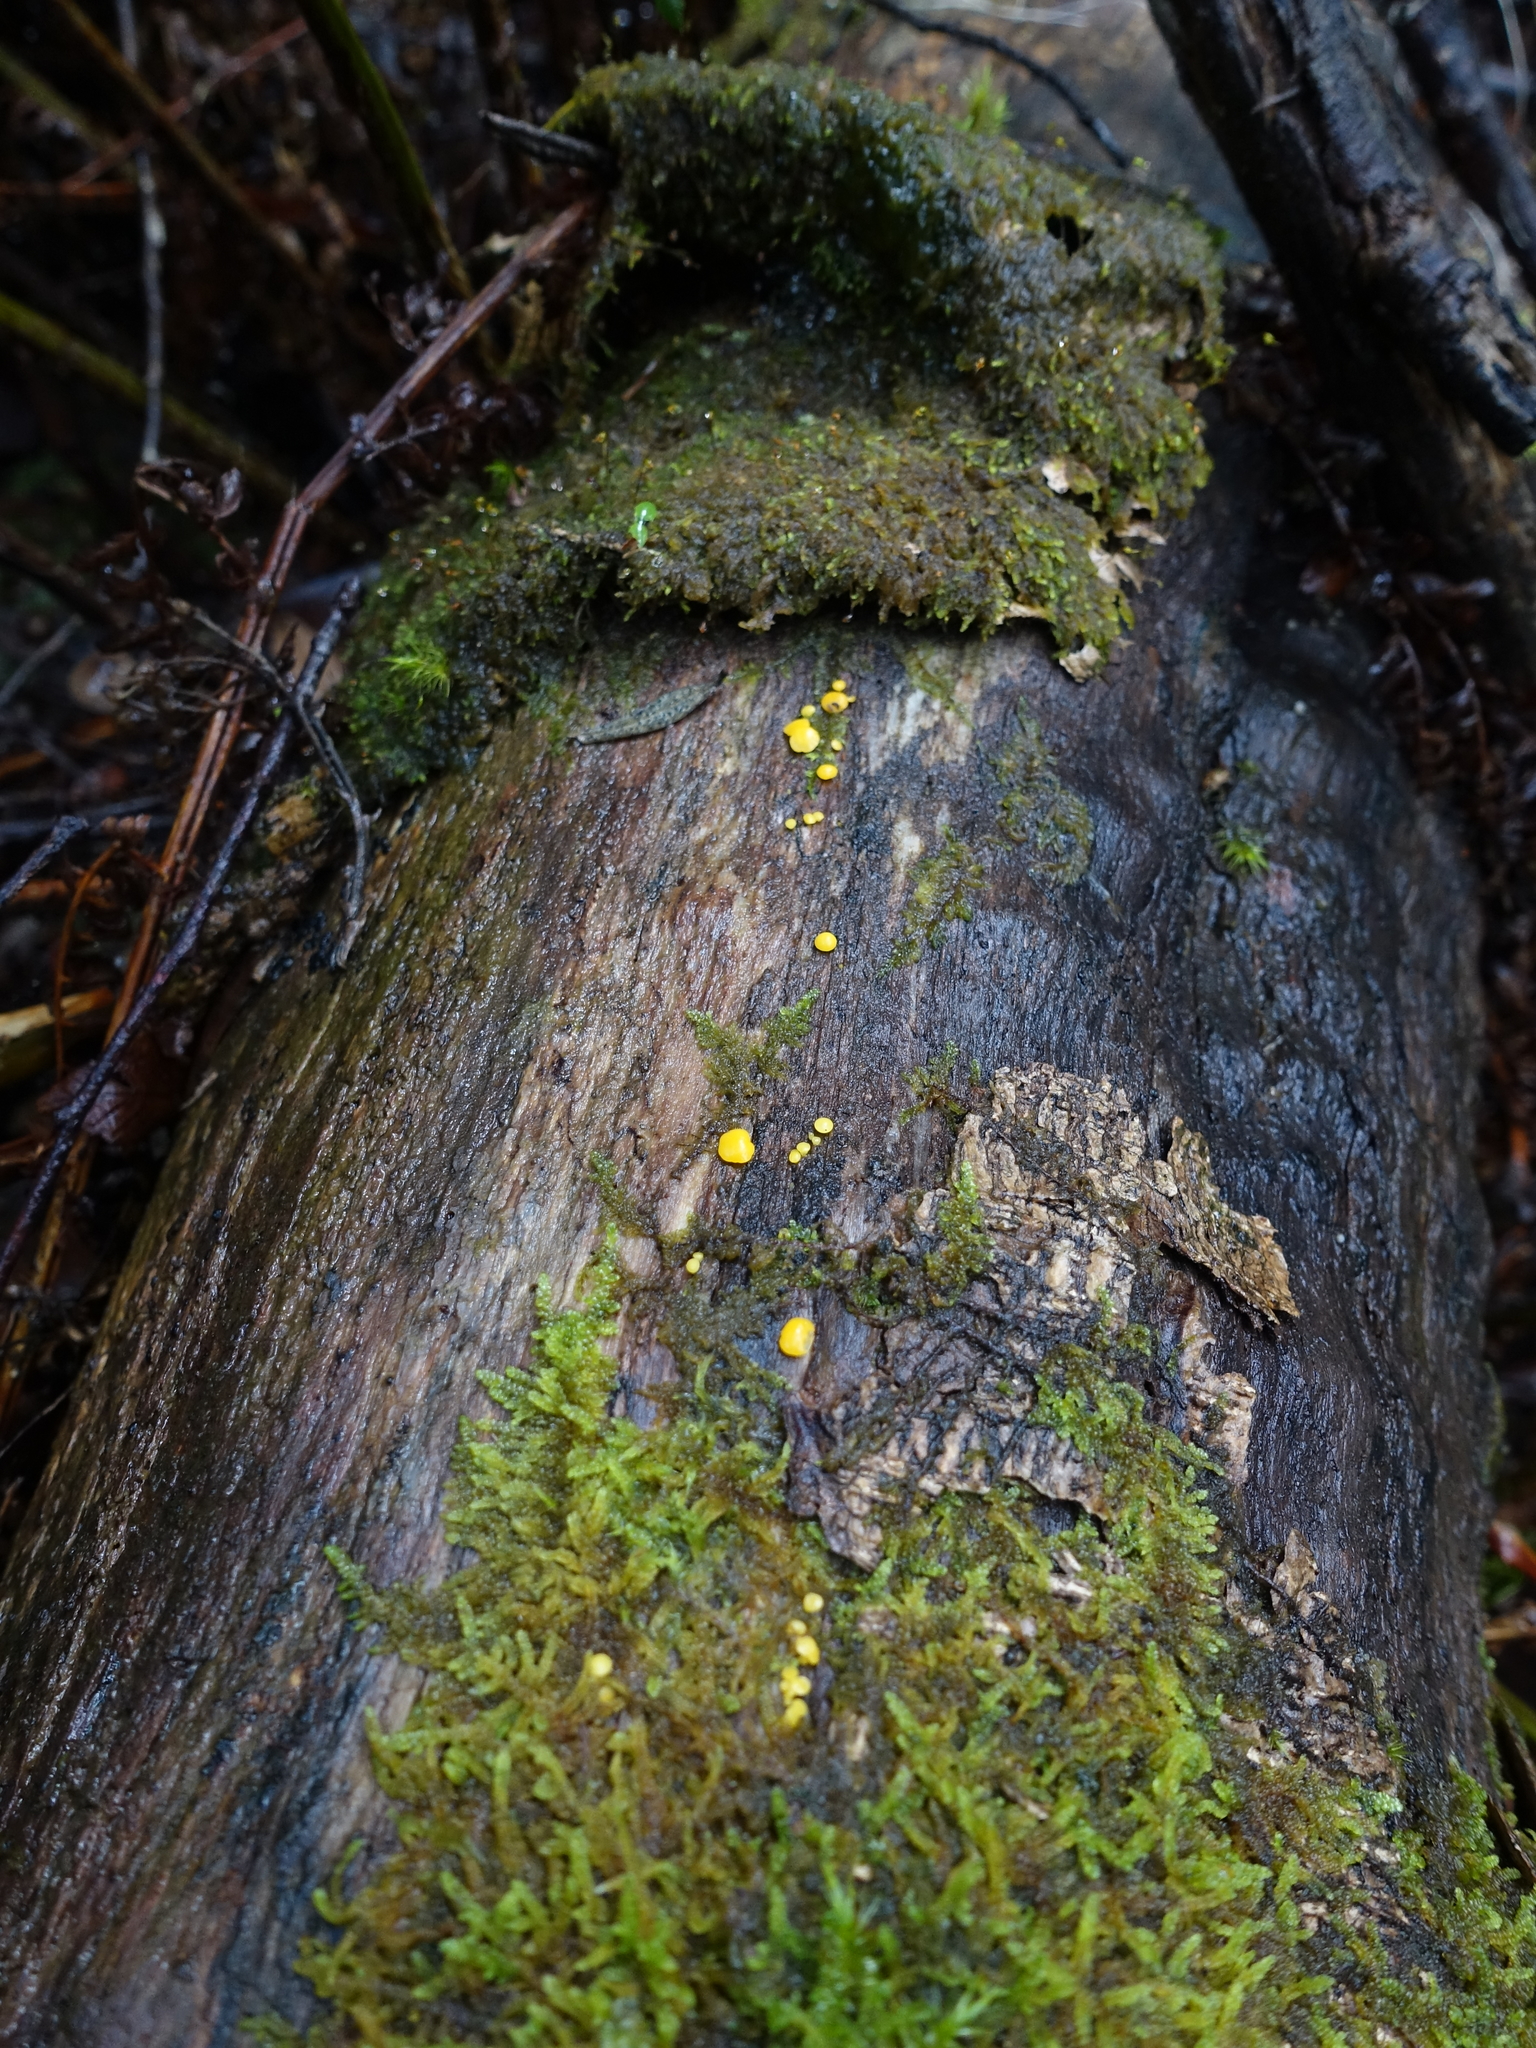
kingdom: Fungi
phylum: Ascomycota
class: Leotiomycetes
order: Helotiales
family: Pezizellaceae
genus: Calycina
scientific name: Calycina citrina
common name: Yellow fairy cups
